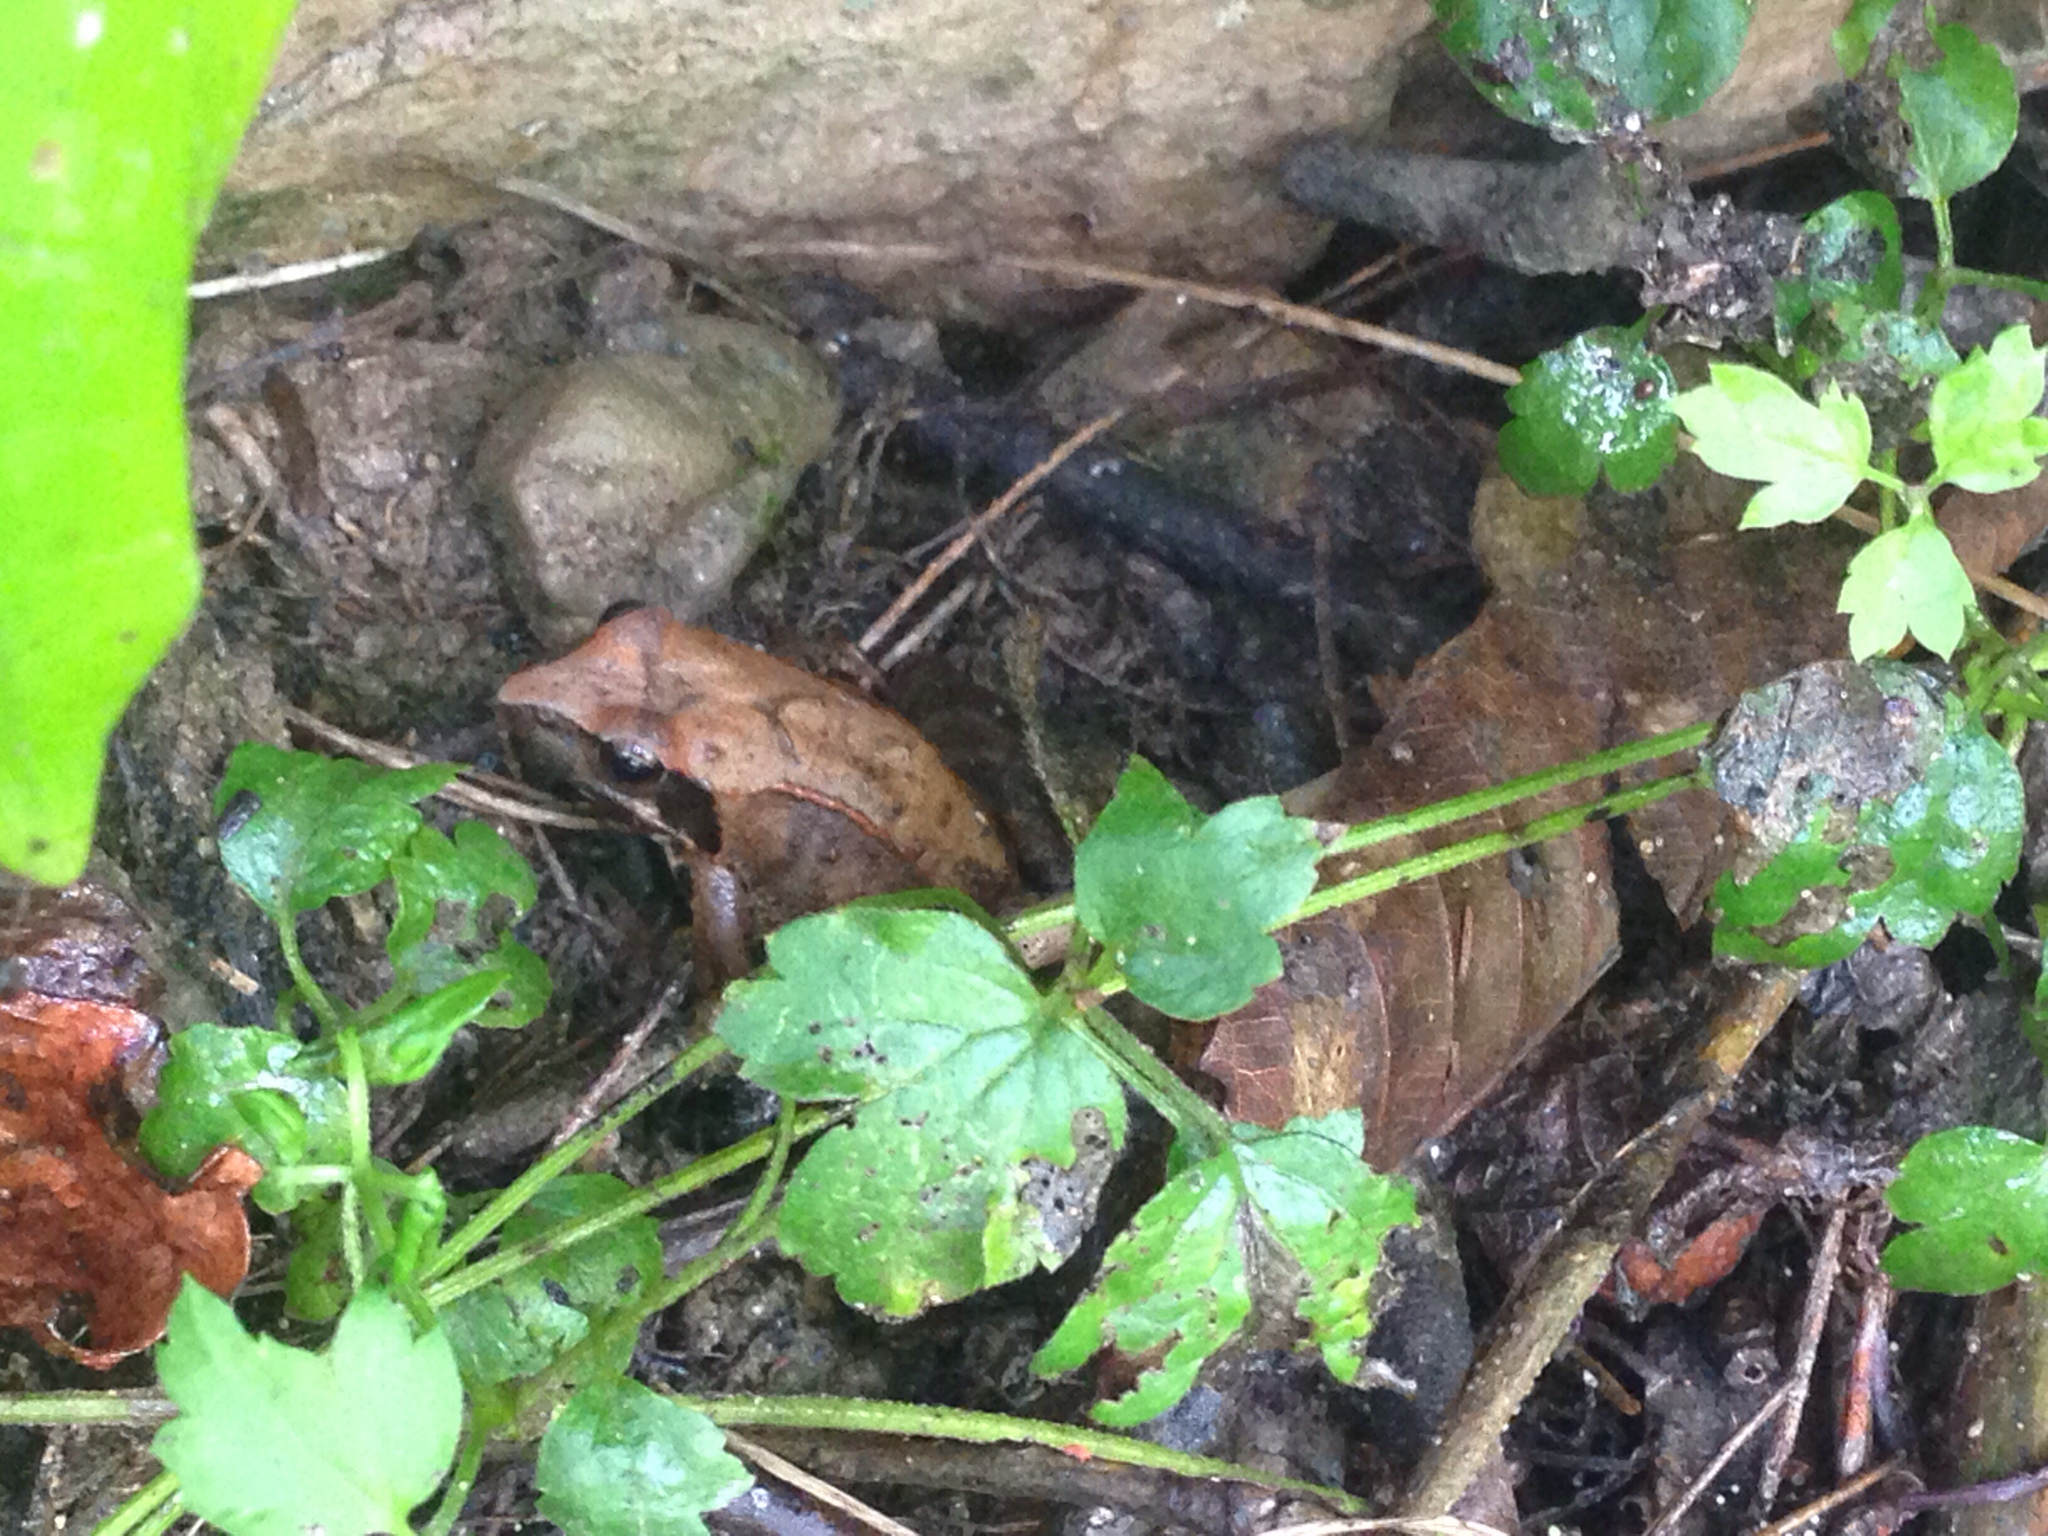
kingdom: Animalia
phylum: Chordata
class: Amphibia
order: Anura
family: Ranidae
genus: Rana
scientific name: Rana uenoi
